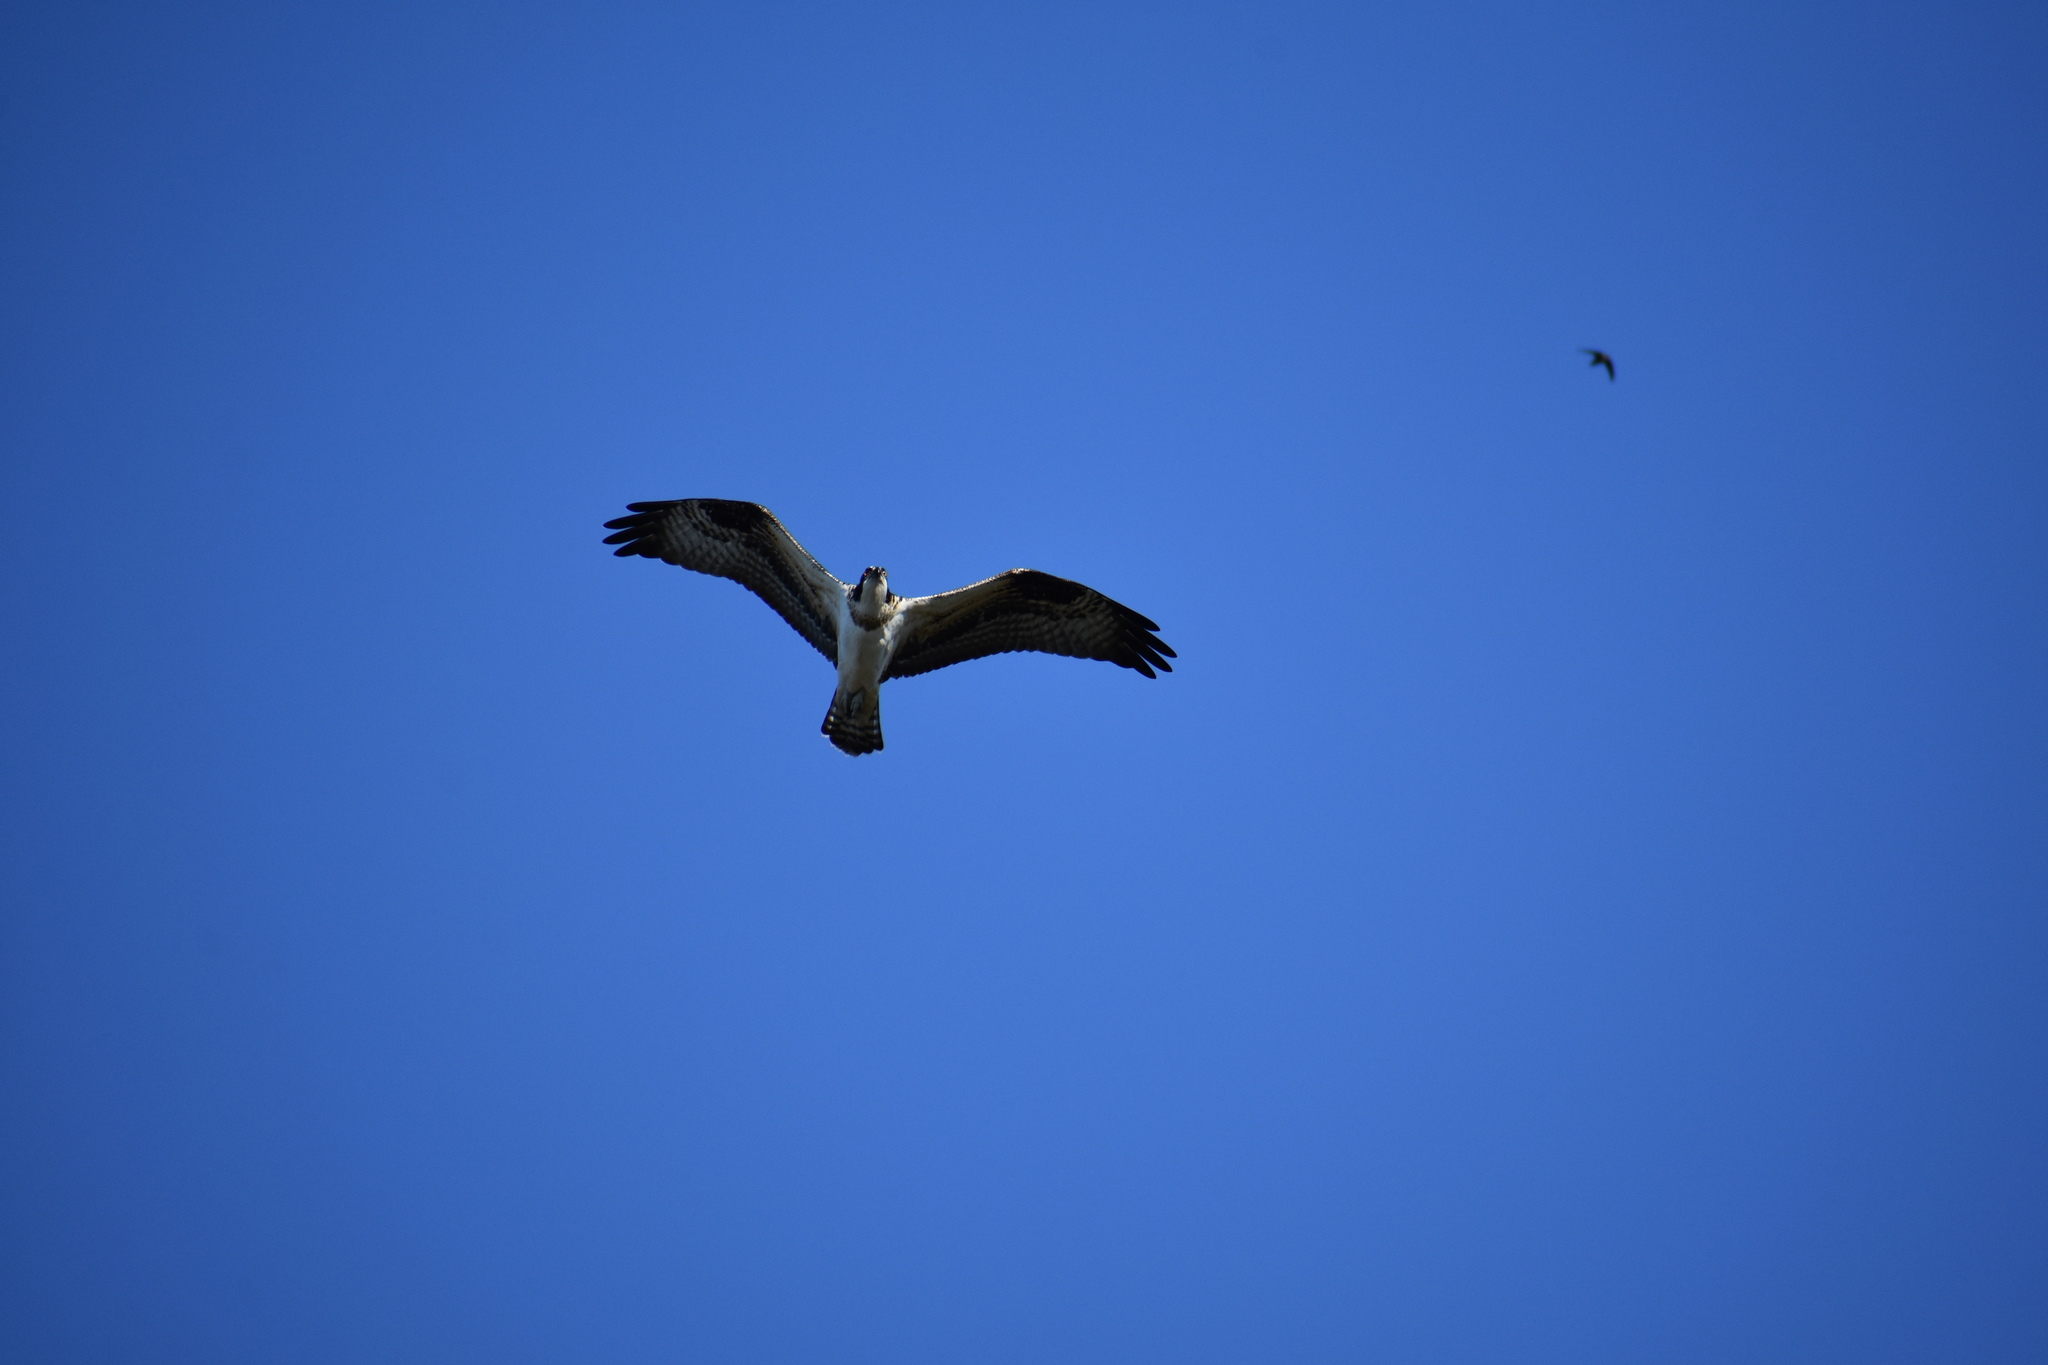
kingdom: Animalia
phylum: Chordata
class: Aves
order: Accipitriformes
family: Pandionidae
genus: Pandion
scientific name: Pandion haliaetus
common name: Osprey
